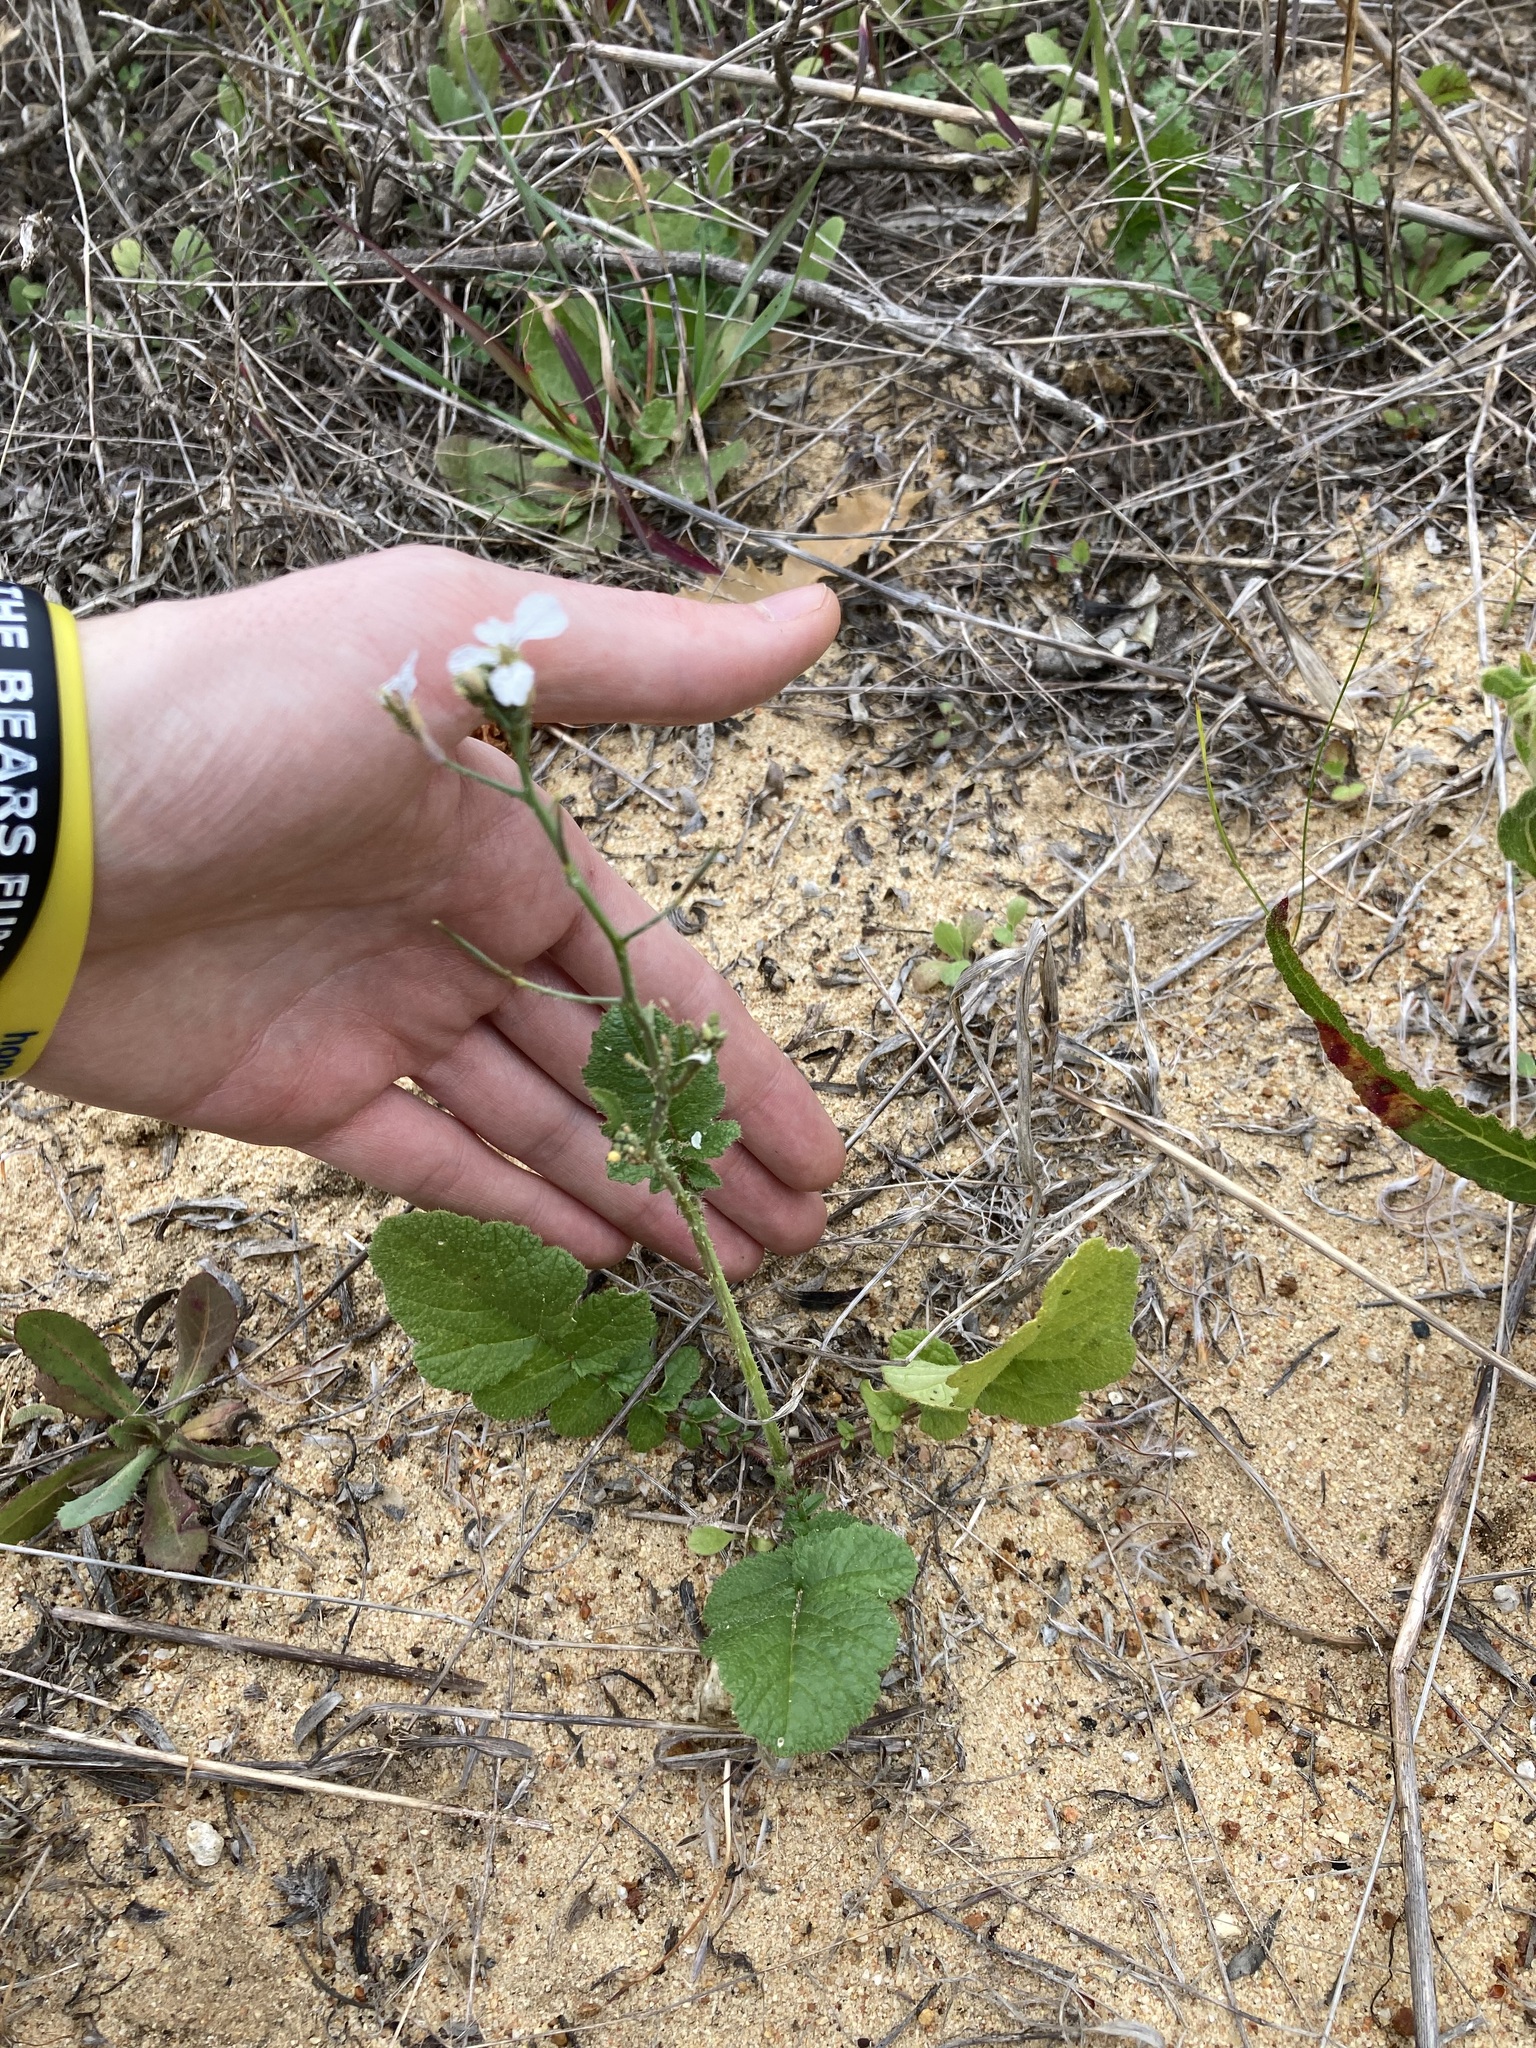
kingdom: Plantae
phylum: Tracheophyta
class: Magnoliopsida
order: Brassicales
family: Brassicaceae
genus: Raphanus
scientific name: Raphanus raphanistrum
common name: Wild radish
